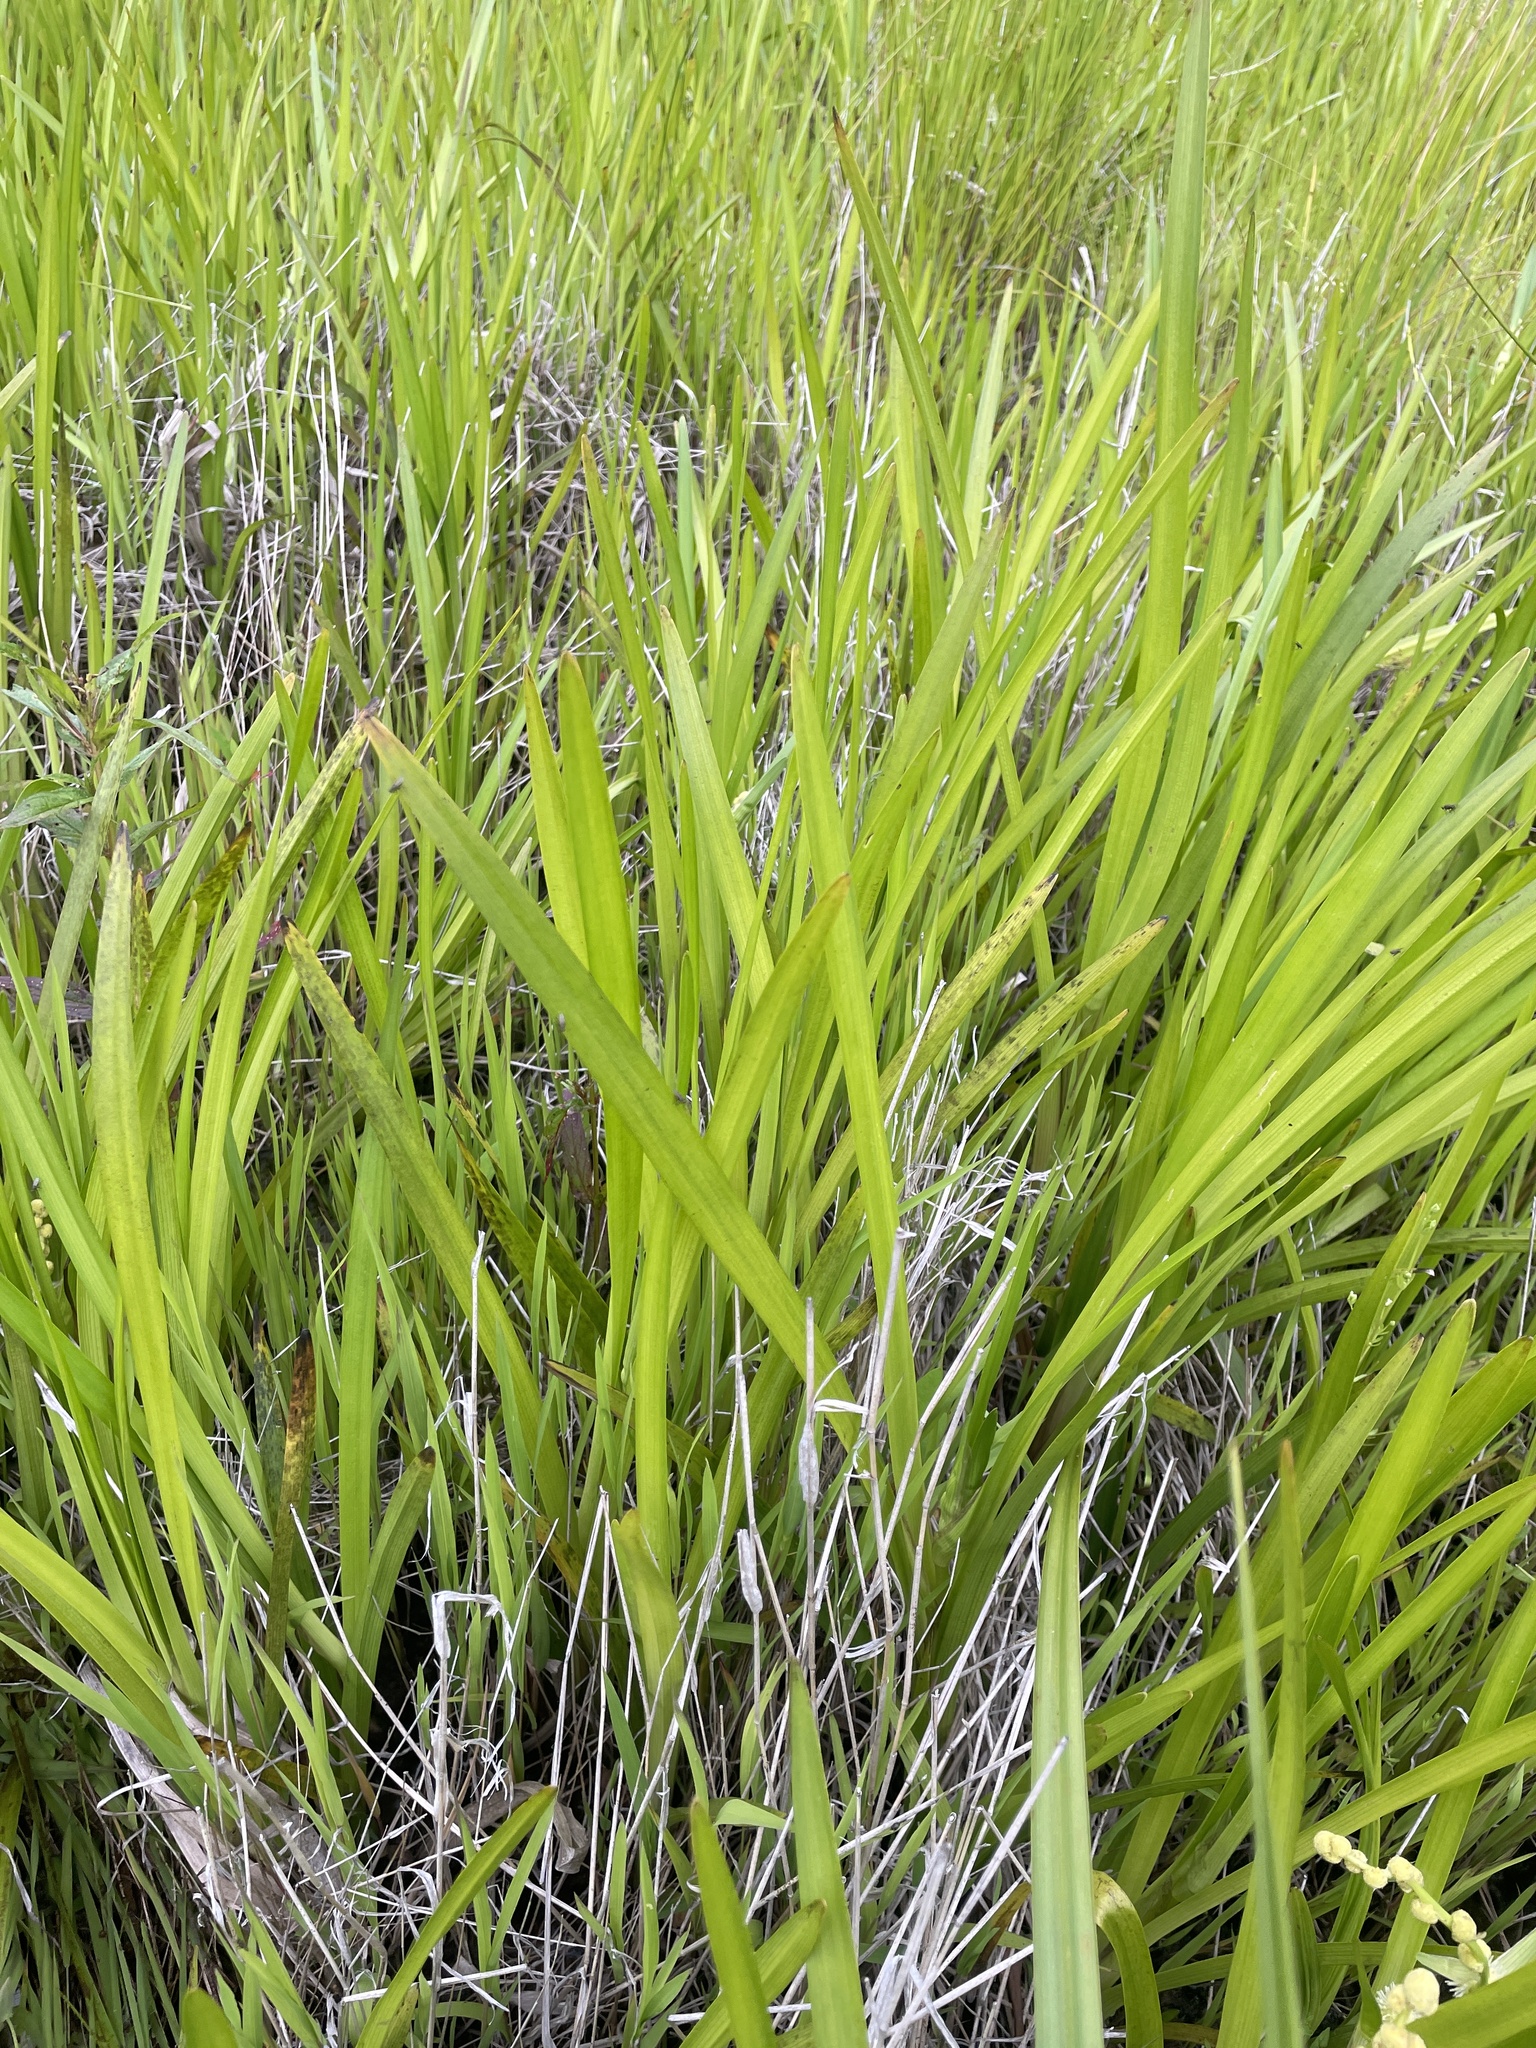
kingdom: Plantae
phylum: Tracheophyta
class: Liliopsida
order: Poales
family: Typhaceae
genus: Sparganium
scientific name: Sparganium americanum
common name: American burreed
